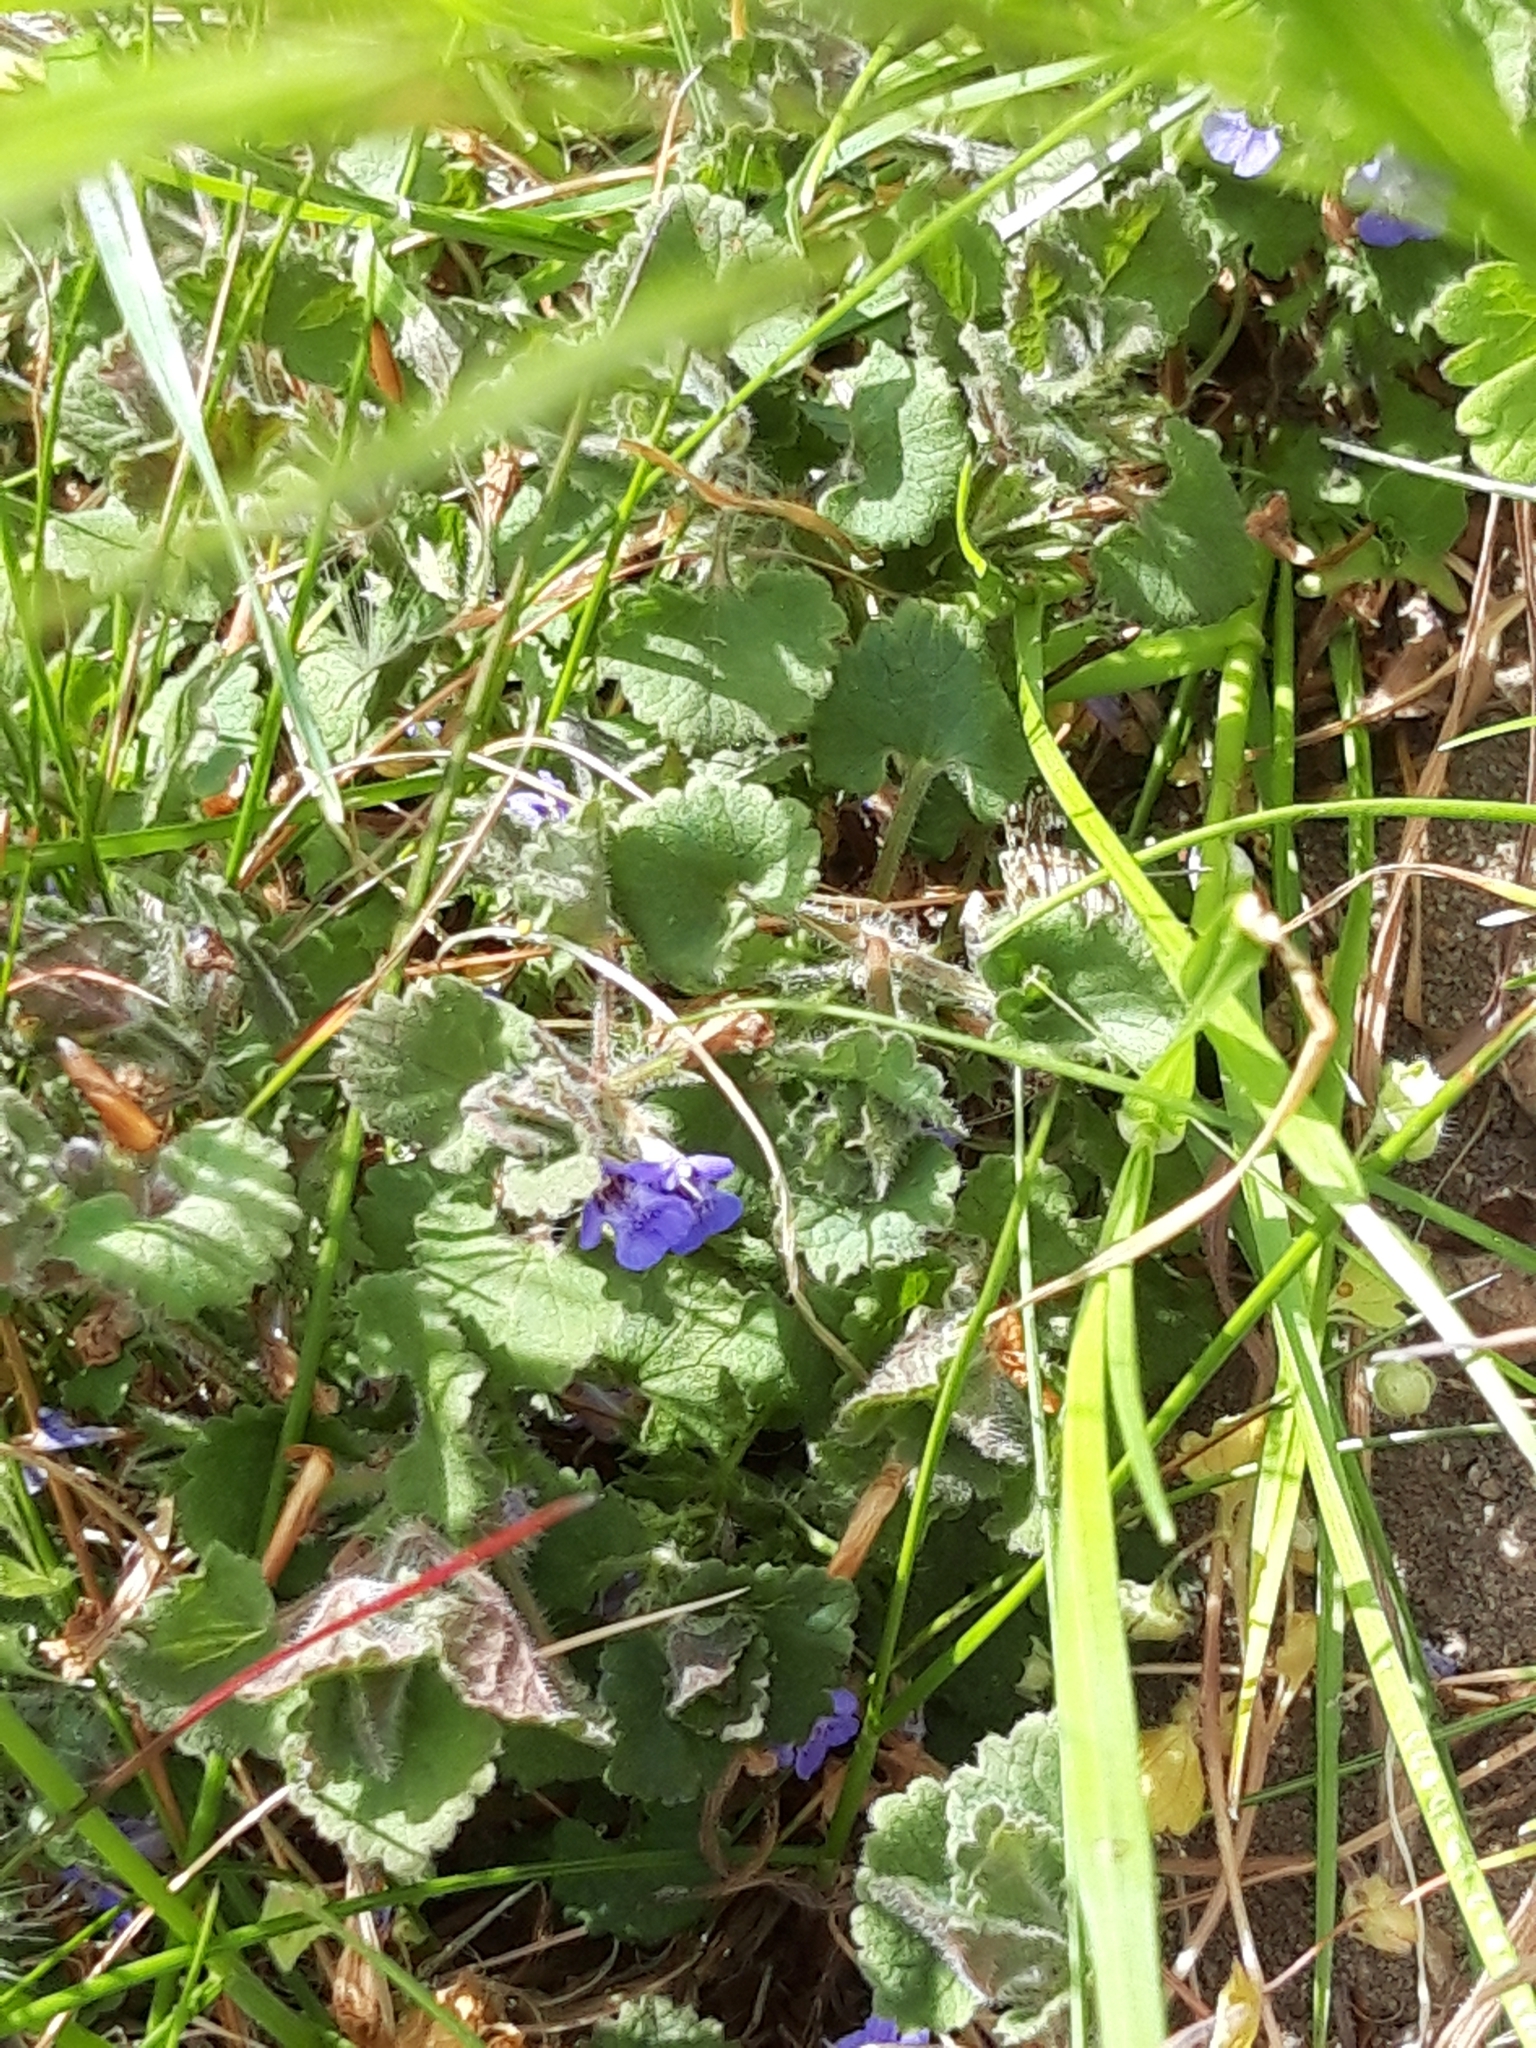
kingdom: Animalia
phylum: Arthropoda
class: Insecta
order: Lepidoptera
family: Erebidae
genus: Callistege
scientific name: Callistege mi
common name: Mother shipton
